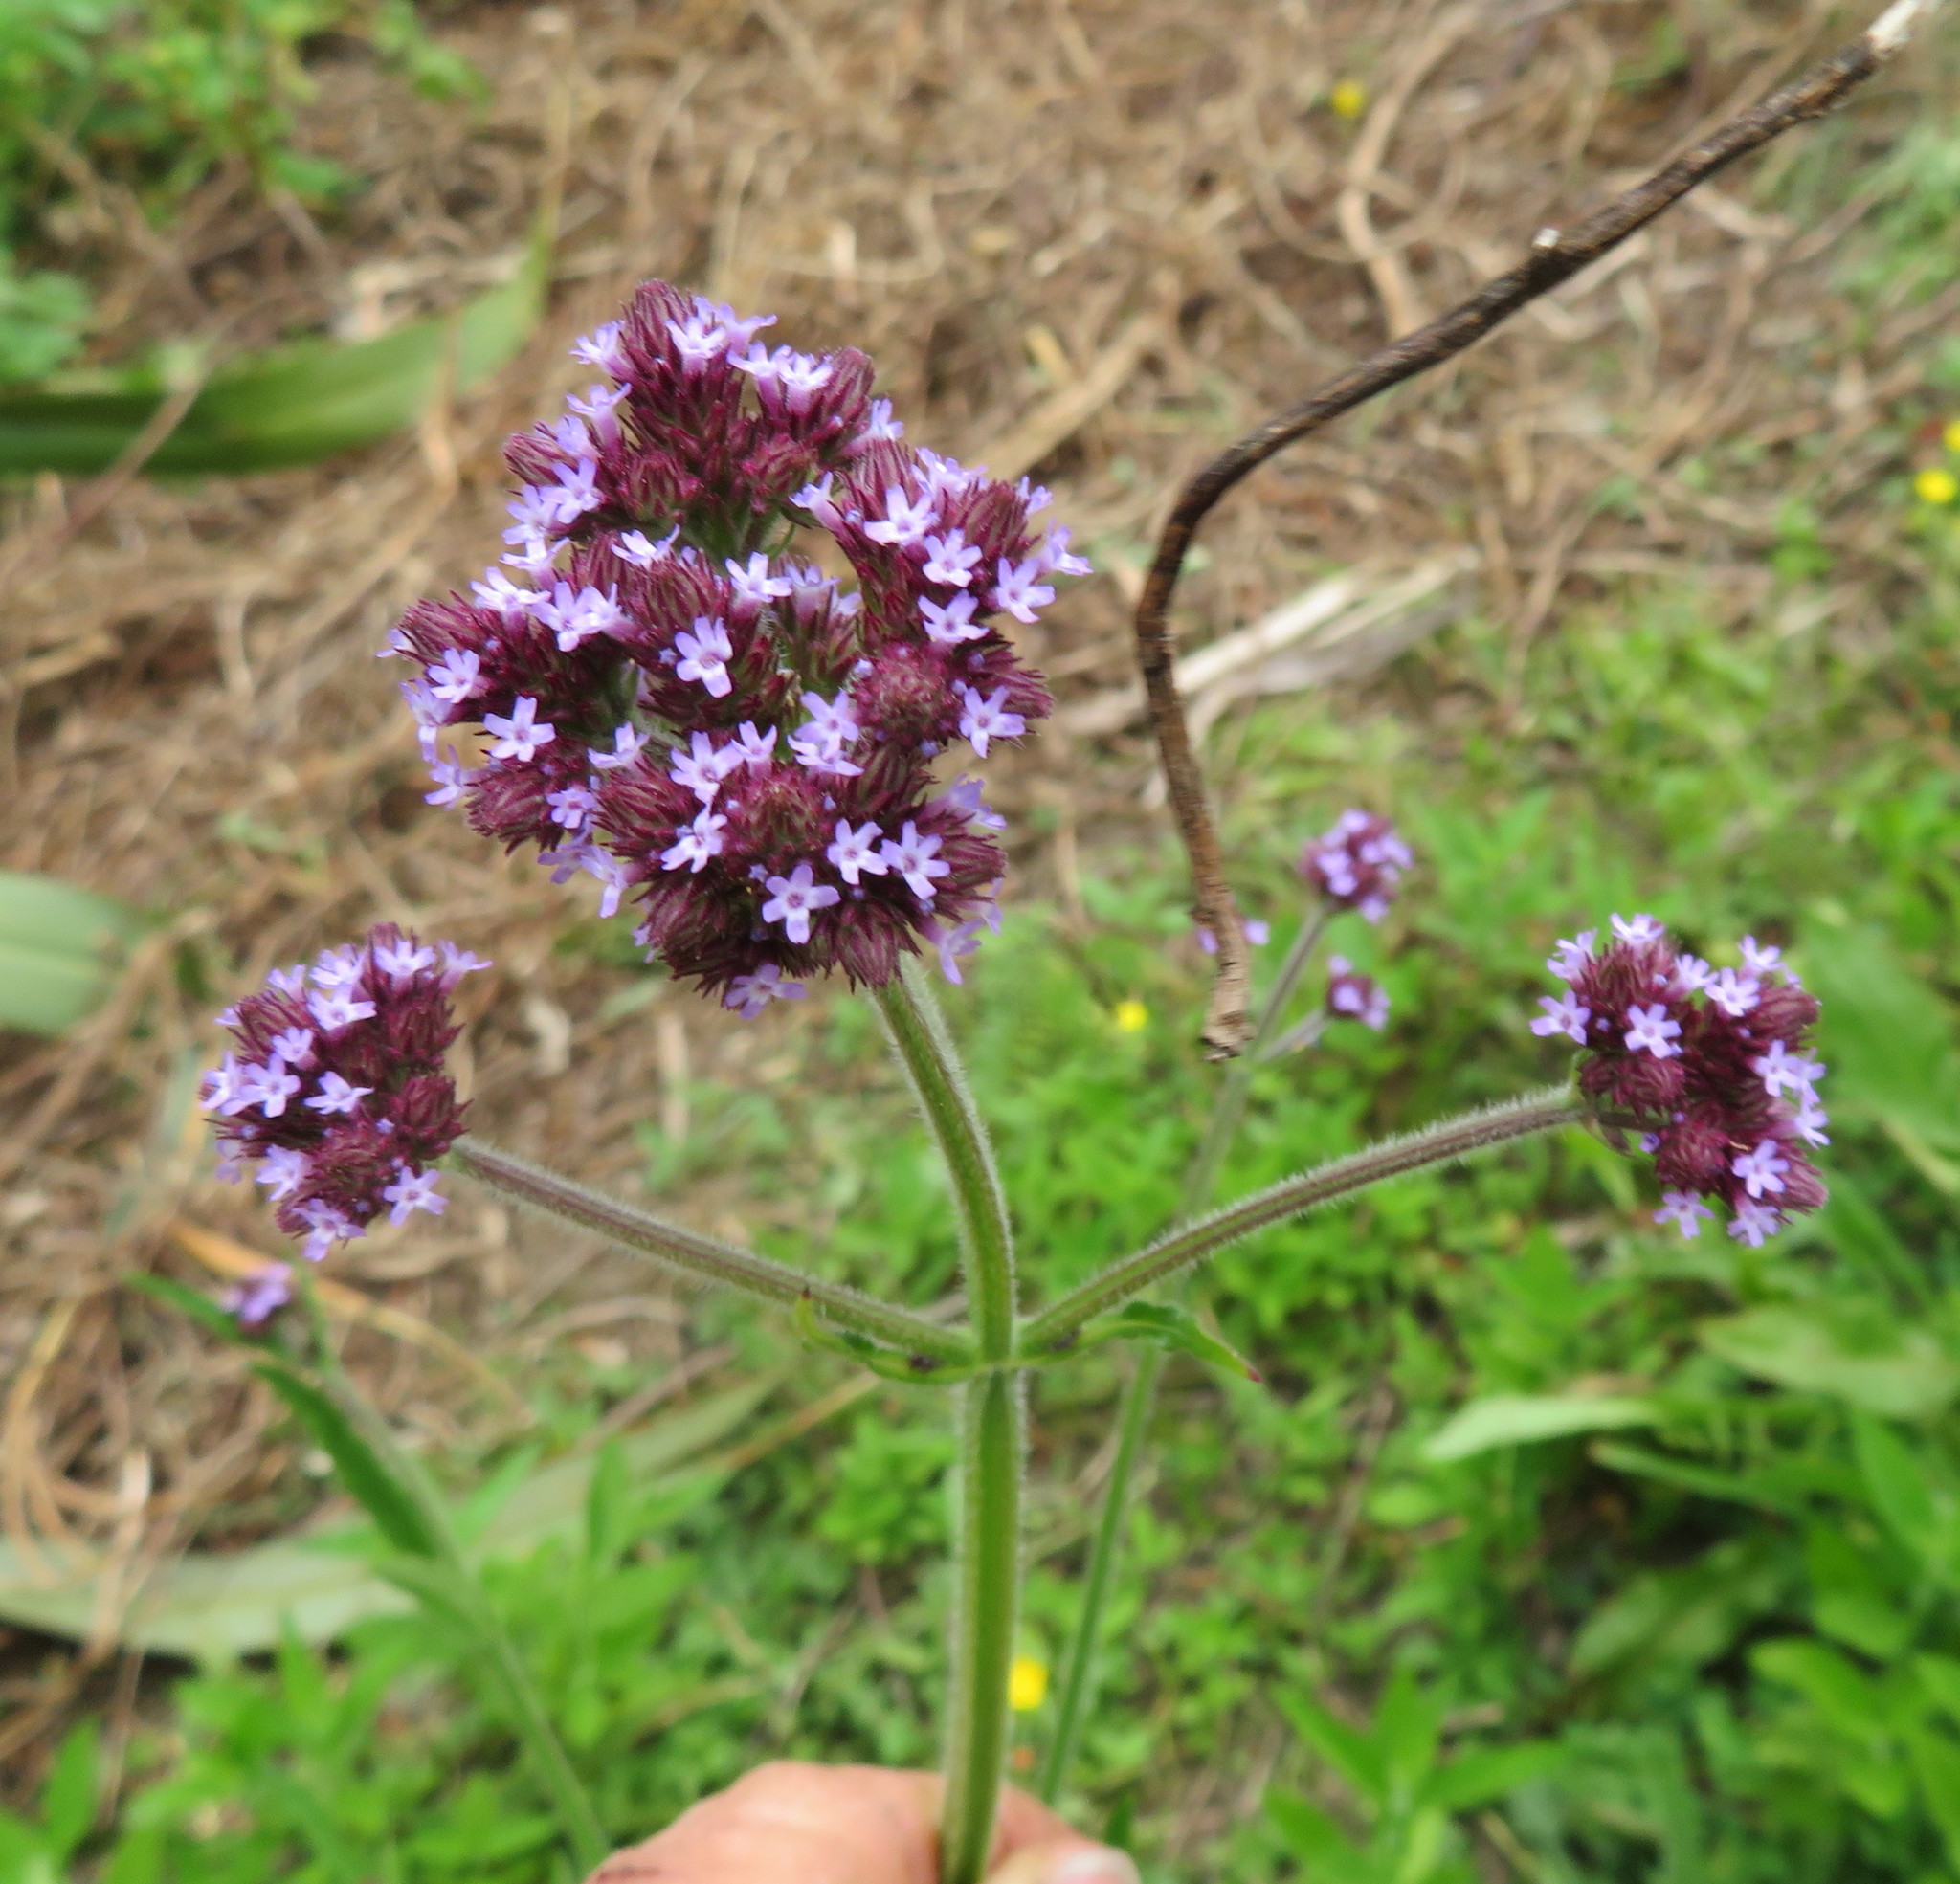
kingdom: Plantae
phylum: Tracheophyta
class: Magnoliopsida
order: Lamiales
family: Verbenaceae
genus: Verbena
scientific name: Verbena incompta
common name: Purpletop vervain
